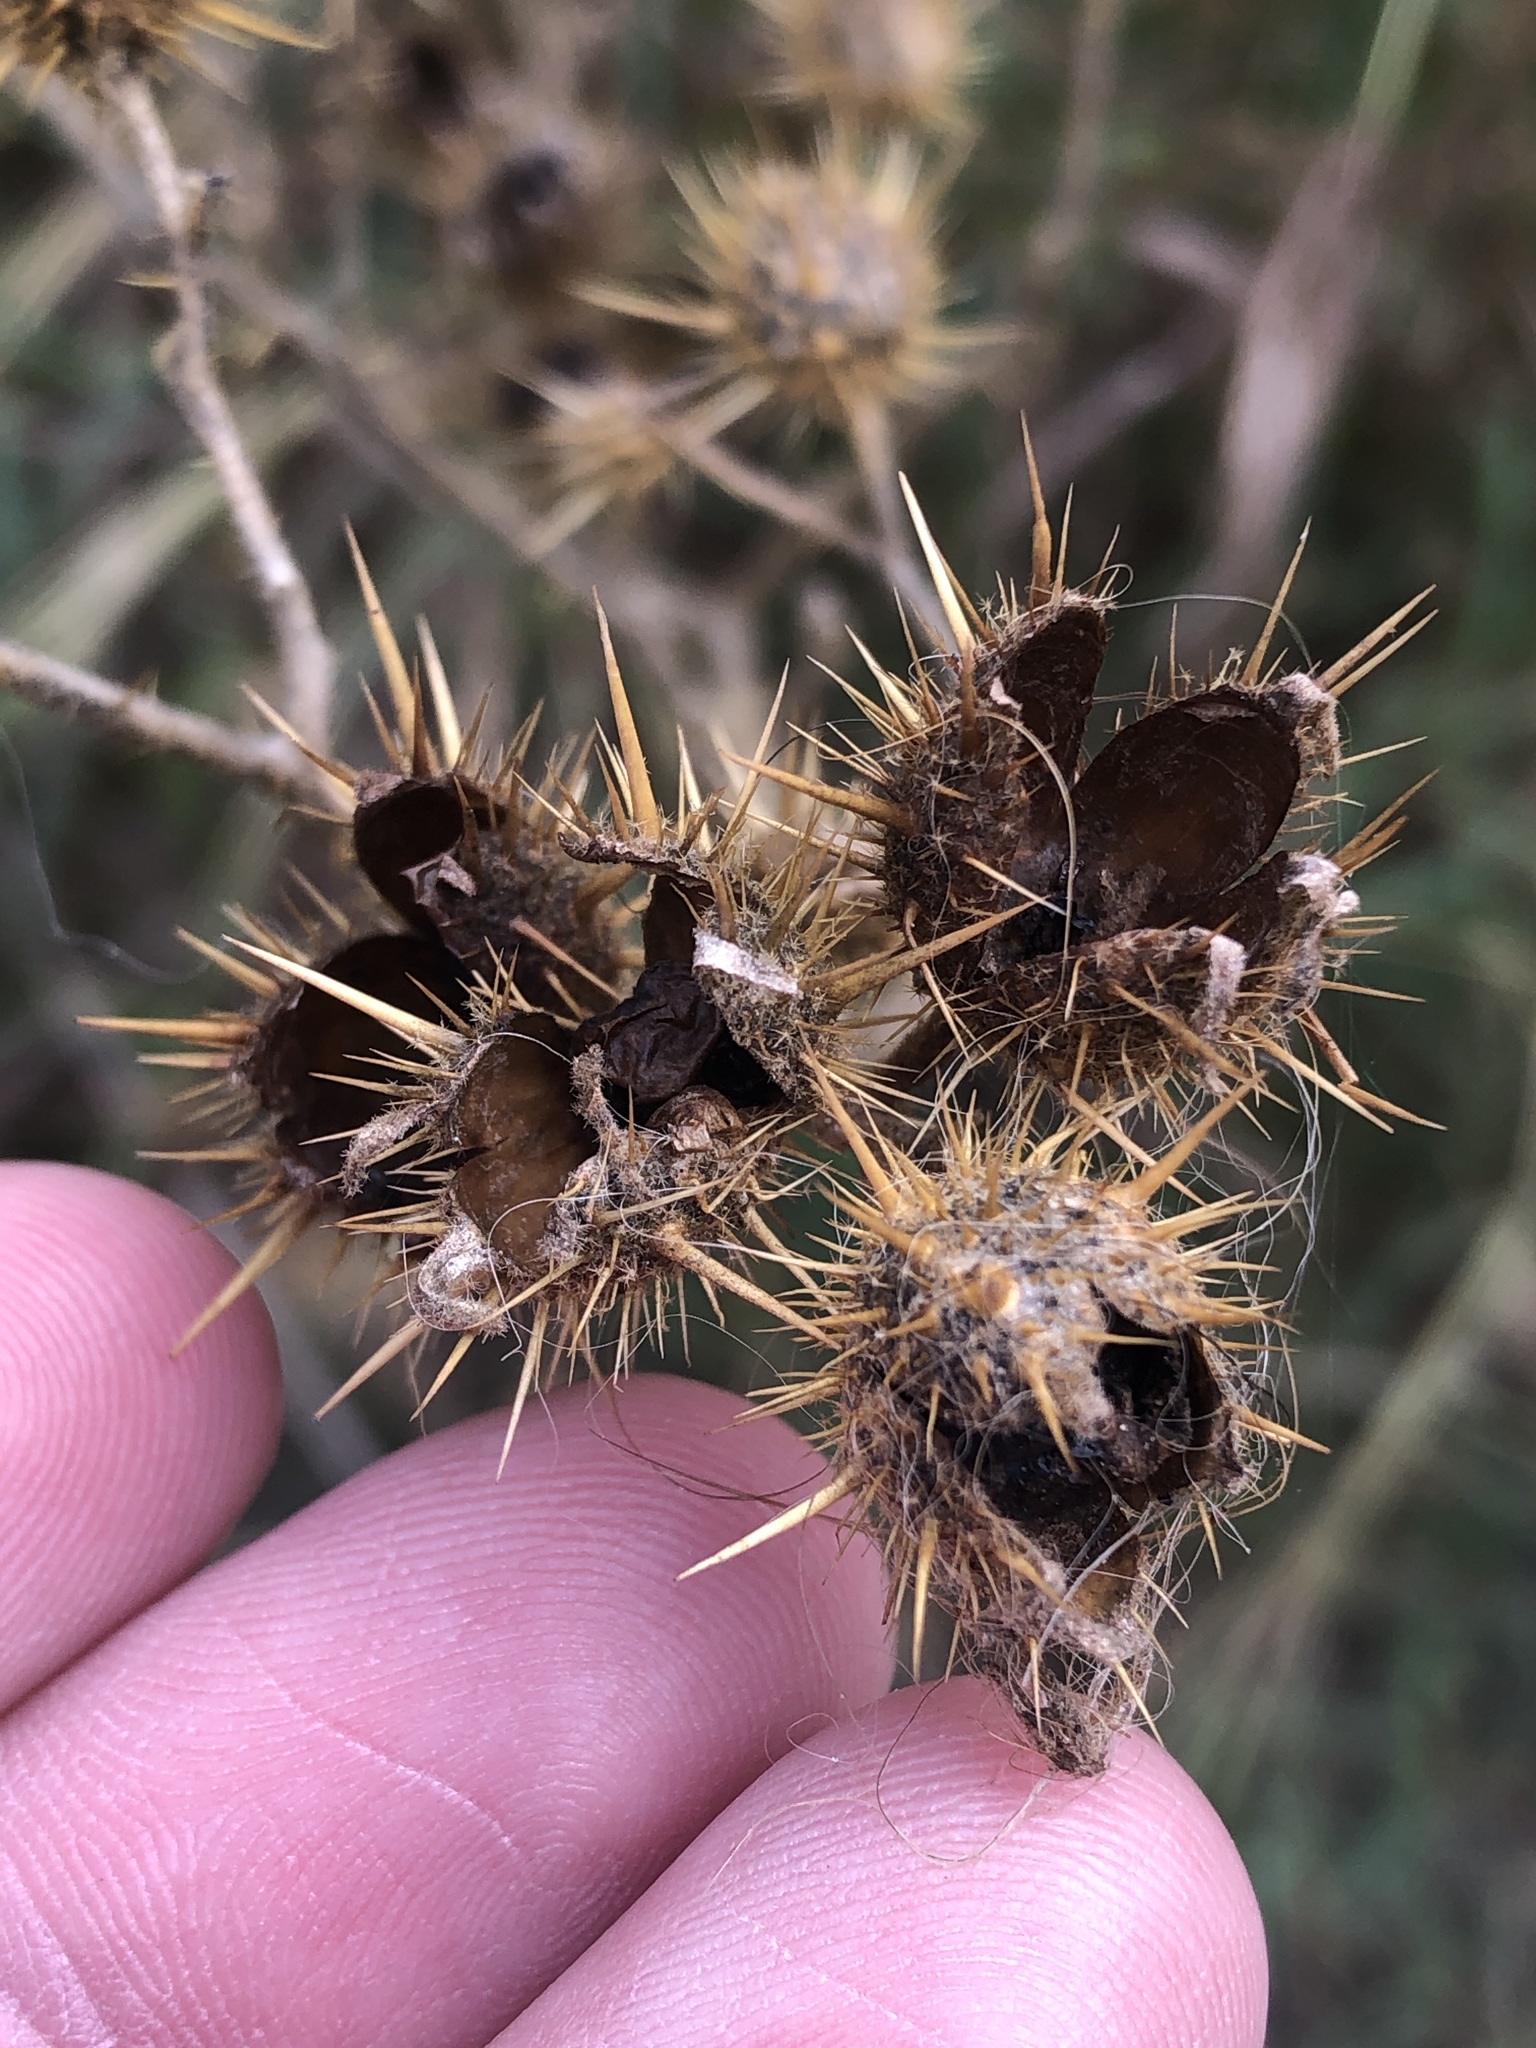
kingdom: Plantae
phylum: Tracheophyta
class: Magnoliopsida
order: Solanales
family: Solanaceae
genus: Solanum
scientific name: Solanum angustifolium
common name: Buffalobur nightshade
